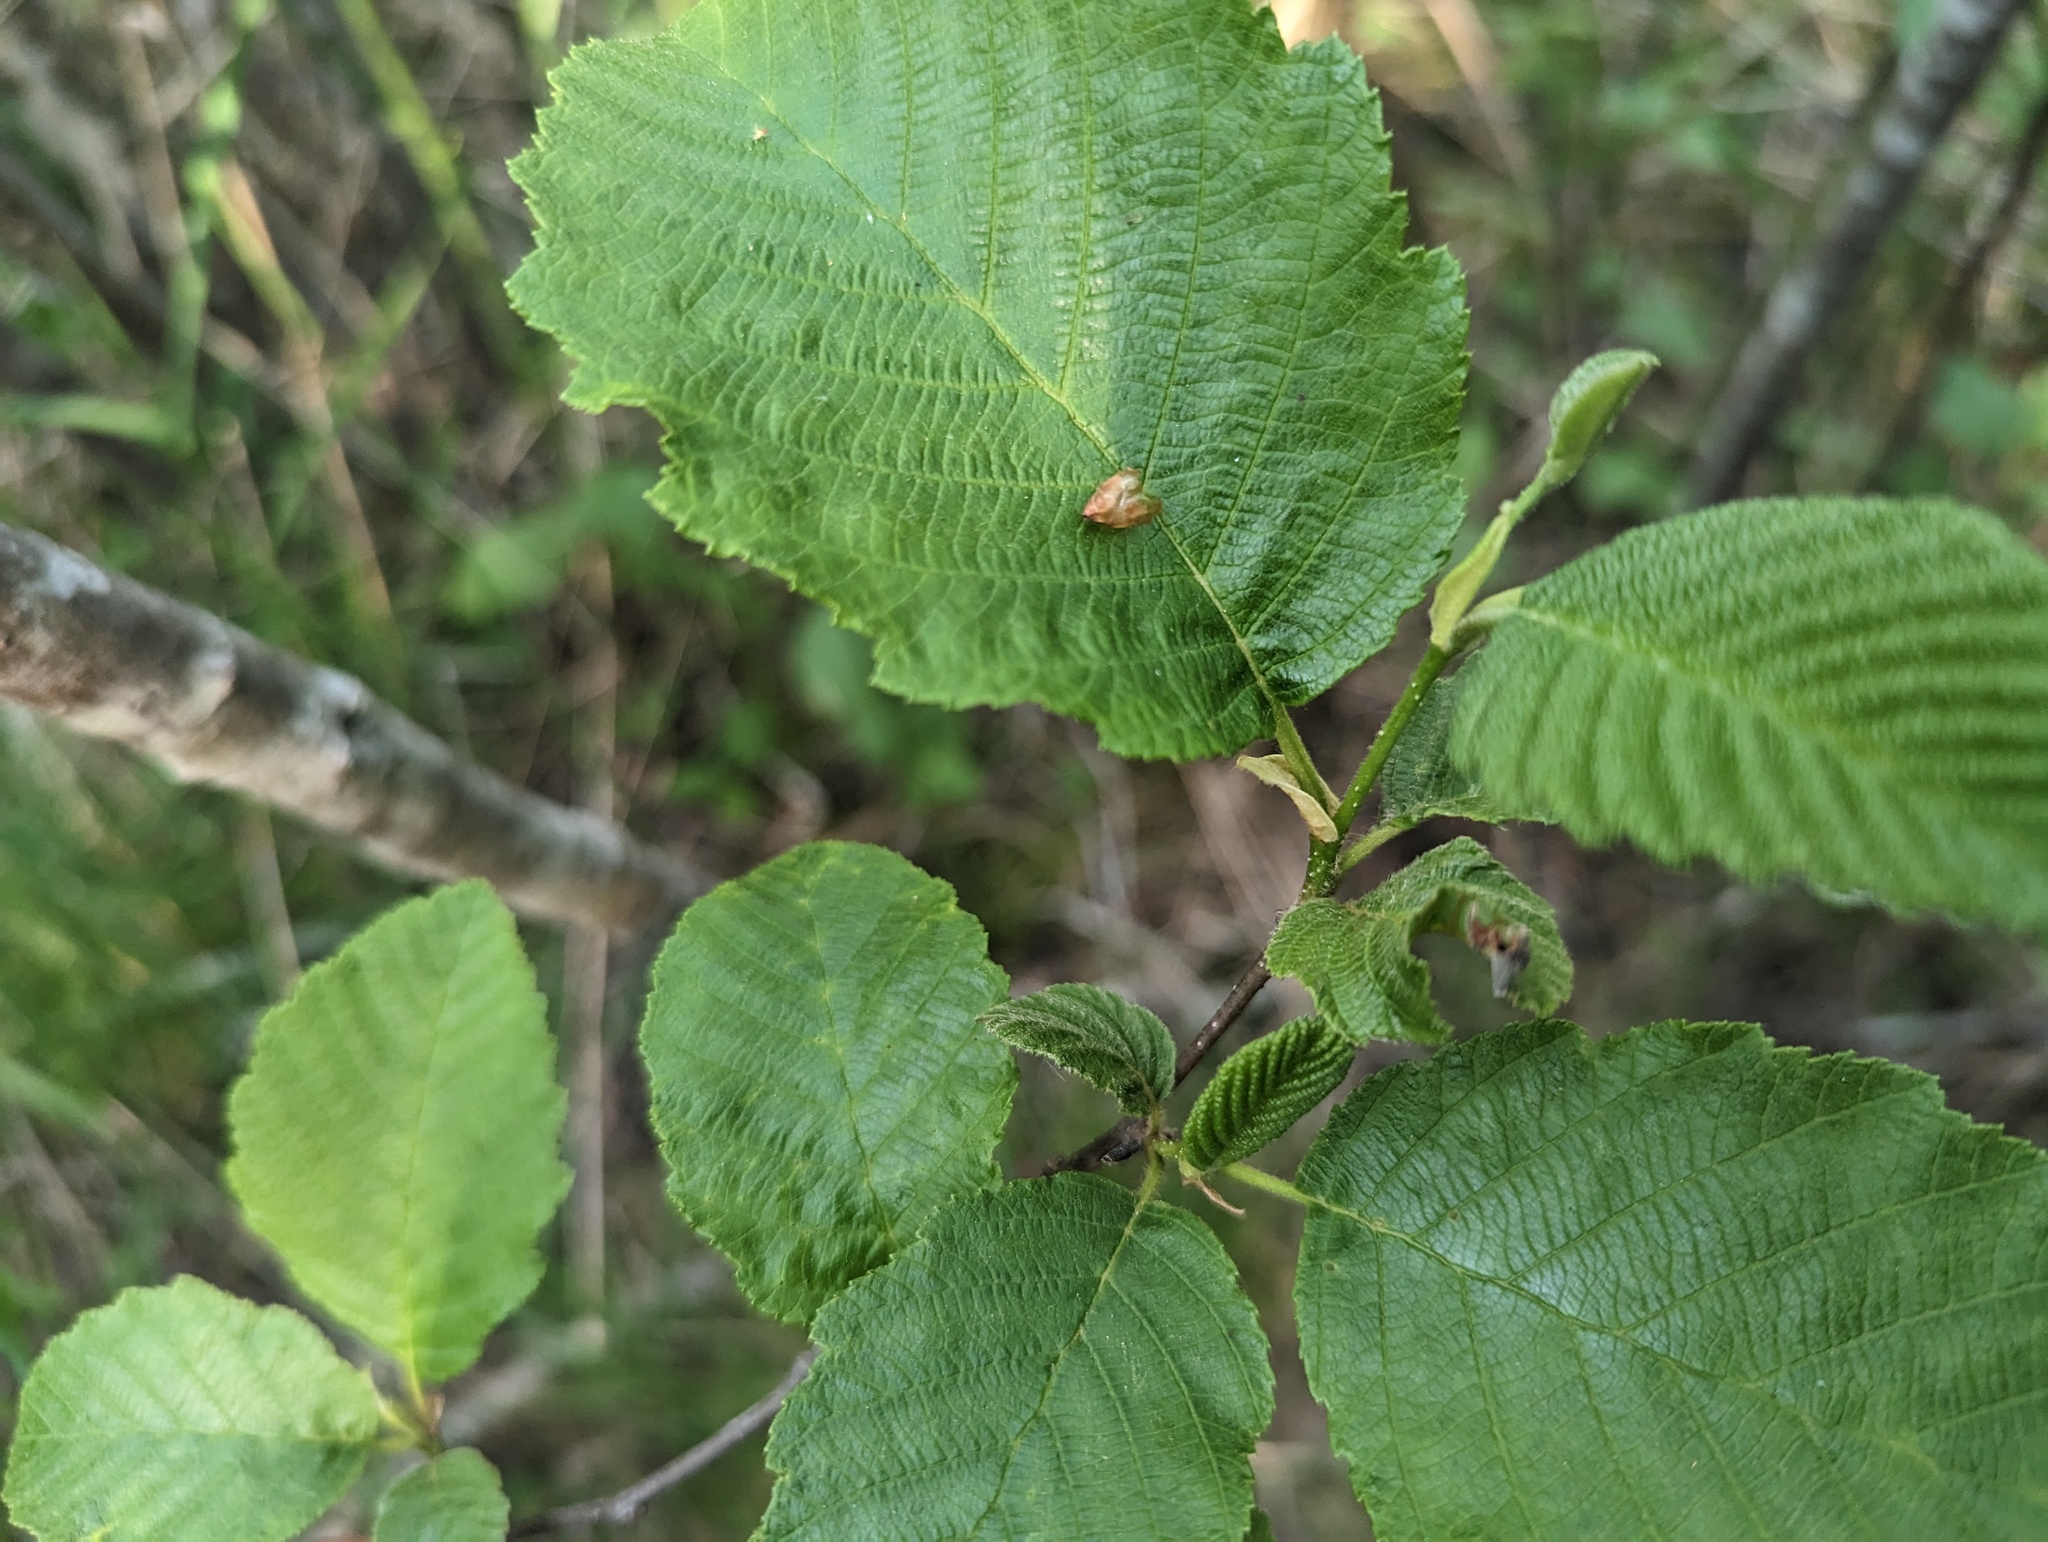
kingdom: Plantae
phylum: Tracheophyta
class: Magnoliopsida
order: Fagales
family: Betulaceae
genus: Alnus
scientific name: Alnus incana
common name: Grey alder
